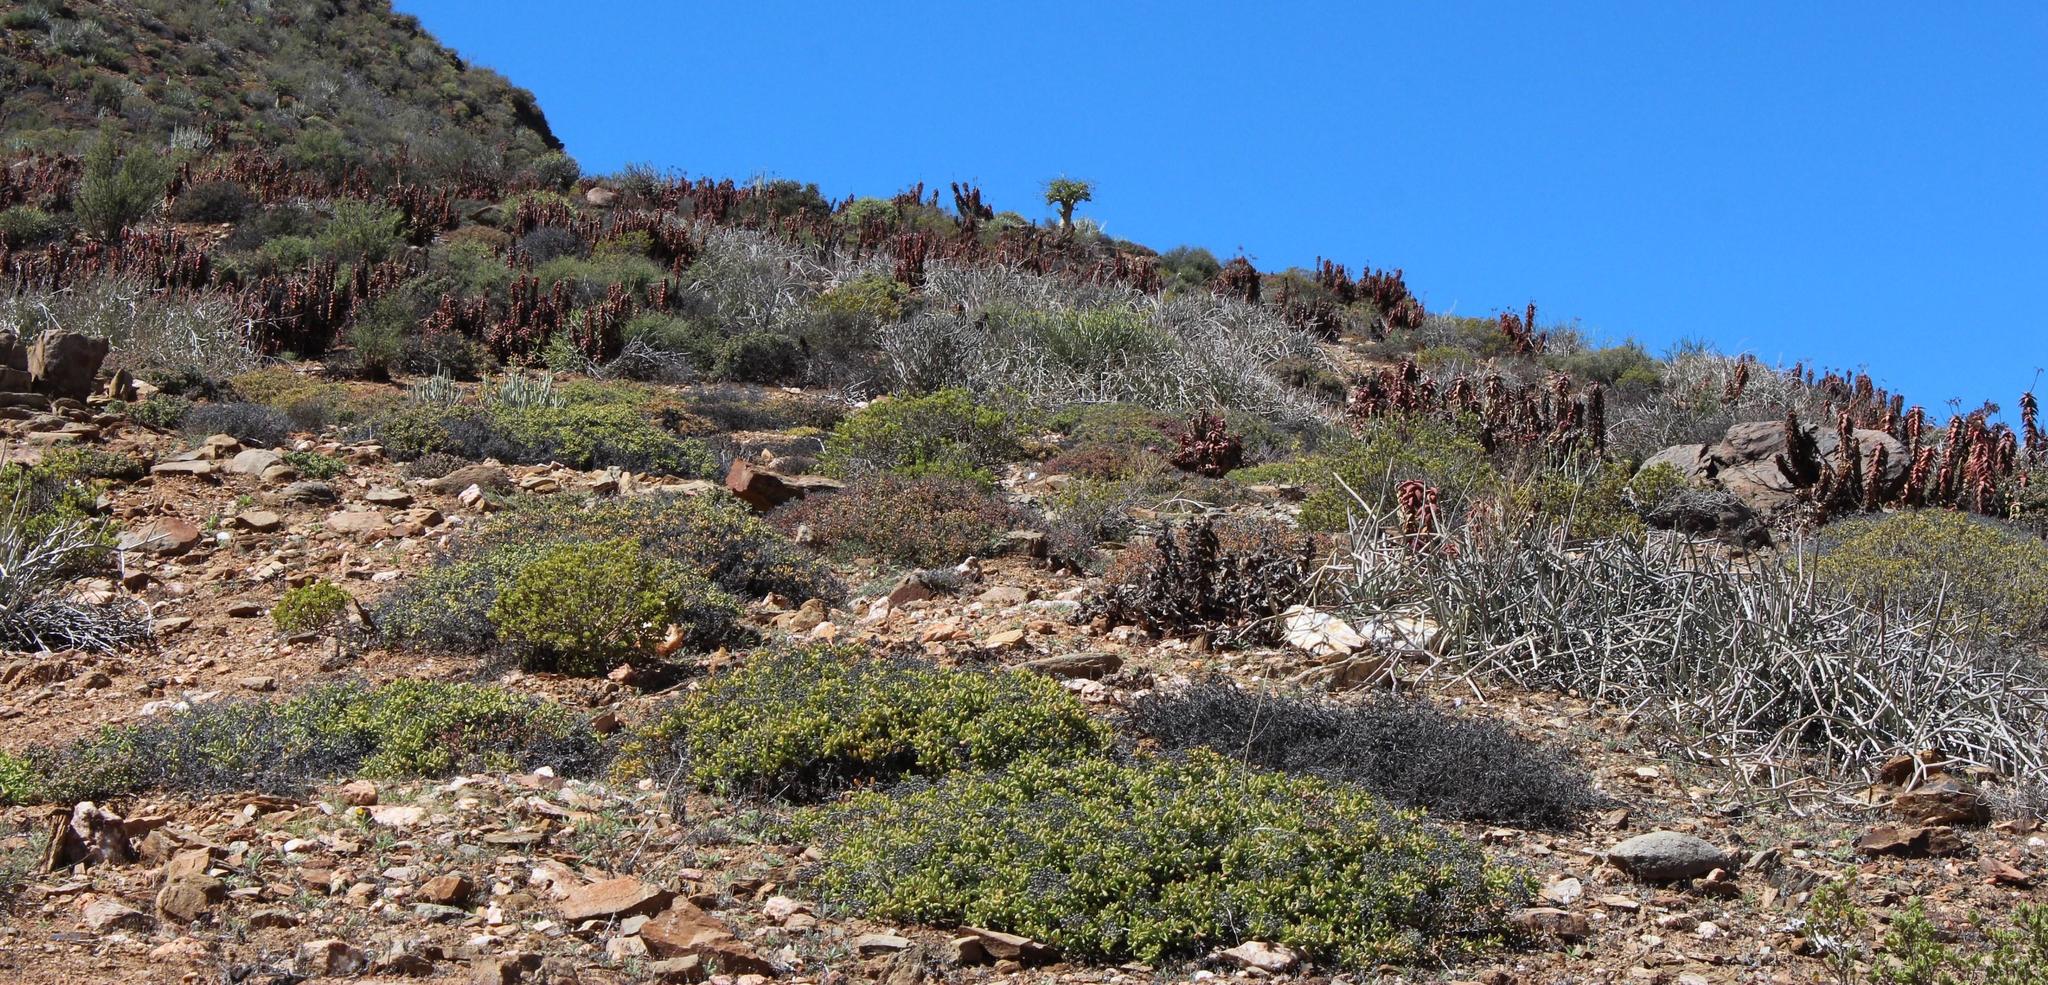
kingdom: Plantae
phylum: Tracheophyta
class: Liliopsida
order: Asparagales
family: Asphodelaceae
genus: Aloe
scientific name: Aloe pearsonii
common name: Pearson's aloe
